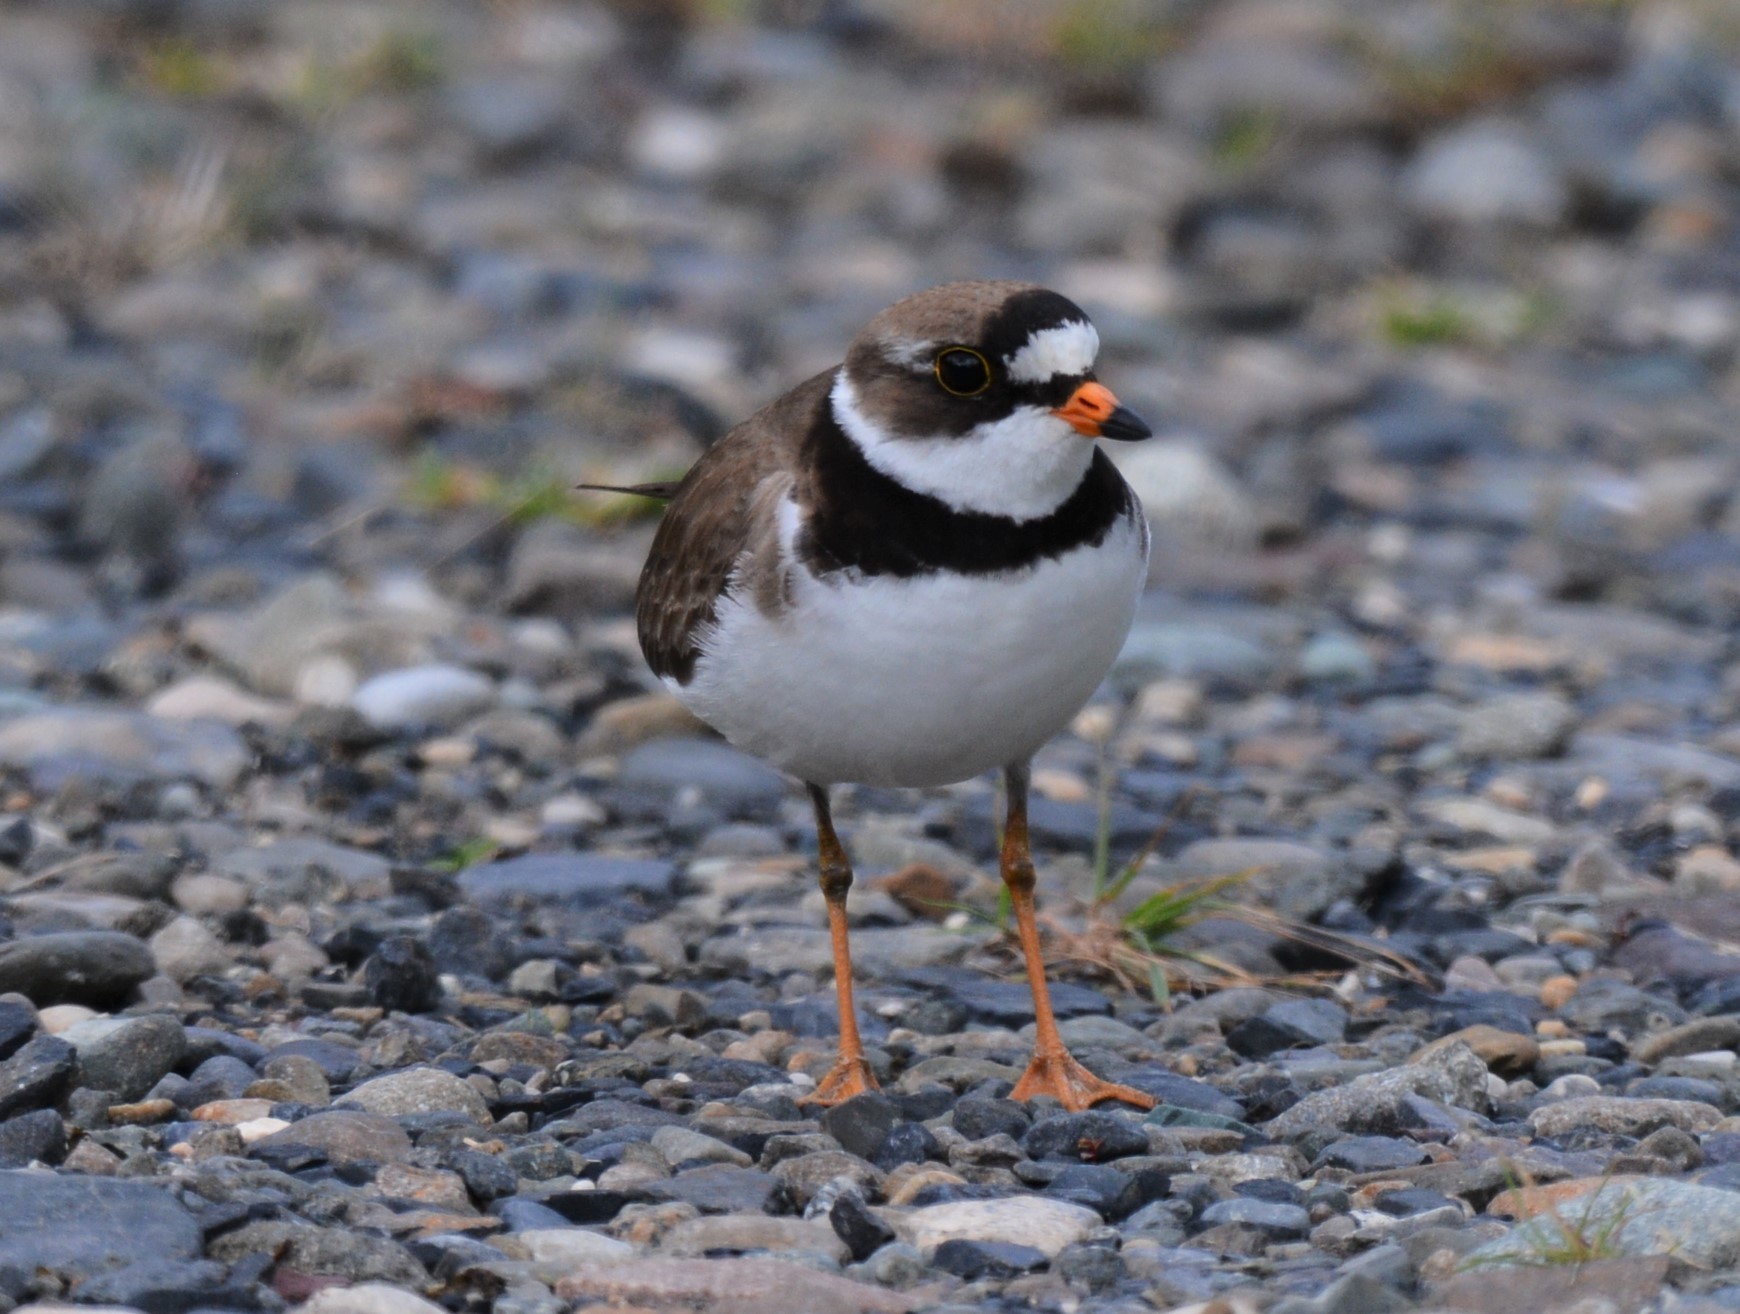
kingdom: Animalia
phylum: Chordata
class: Aves
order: Charadriiformes
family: Charadriidae
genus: Charadrius
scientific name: Charadrius semipalmatus
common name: Semipalmated plover
